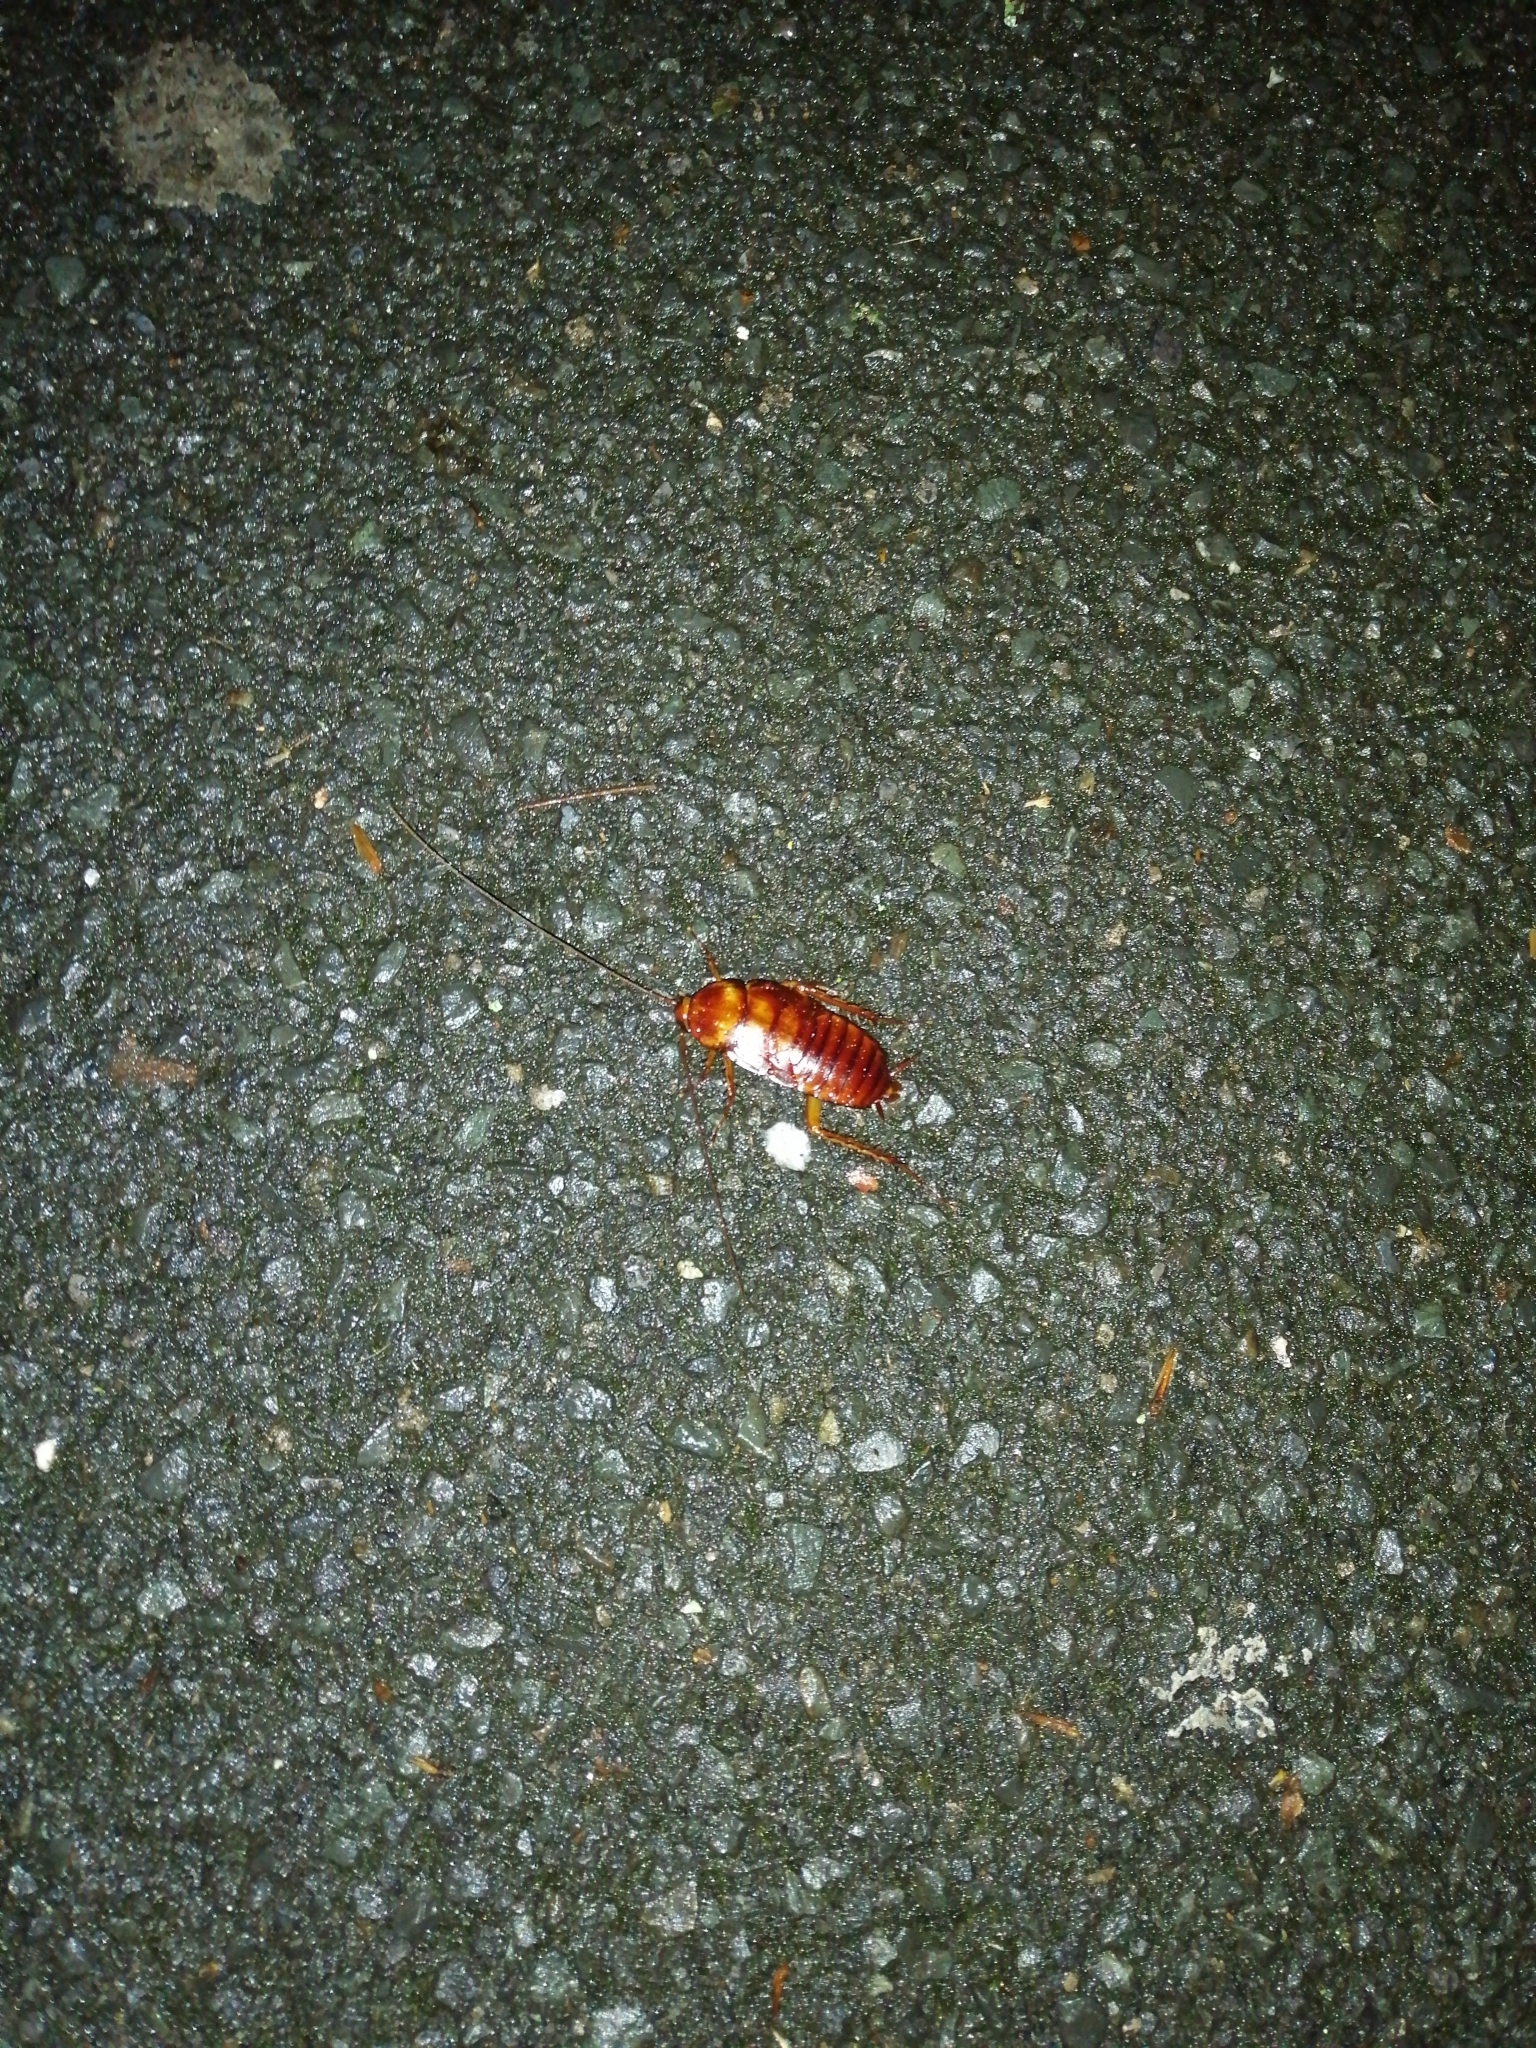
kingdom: Animalia
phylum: Arthropoda
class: Insecta
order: Blattodea
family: Blattidae
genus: Periplaneta
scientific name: Periplaneta americana
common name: American cockroach
